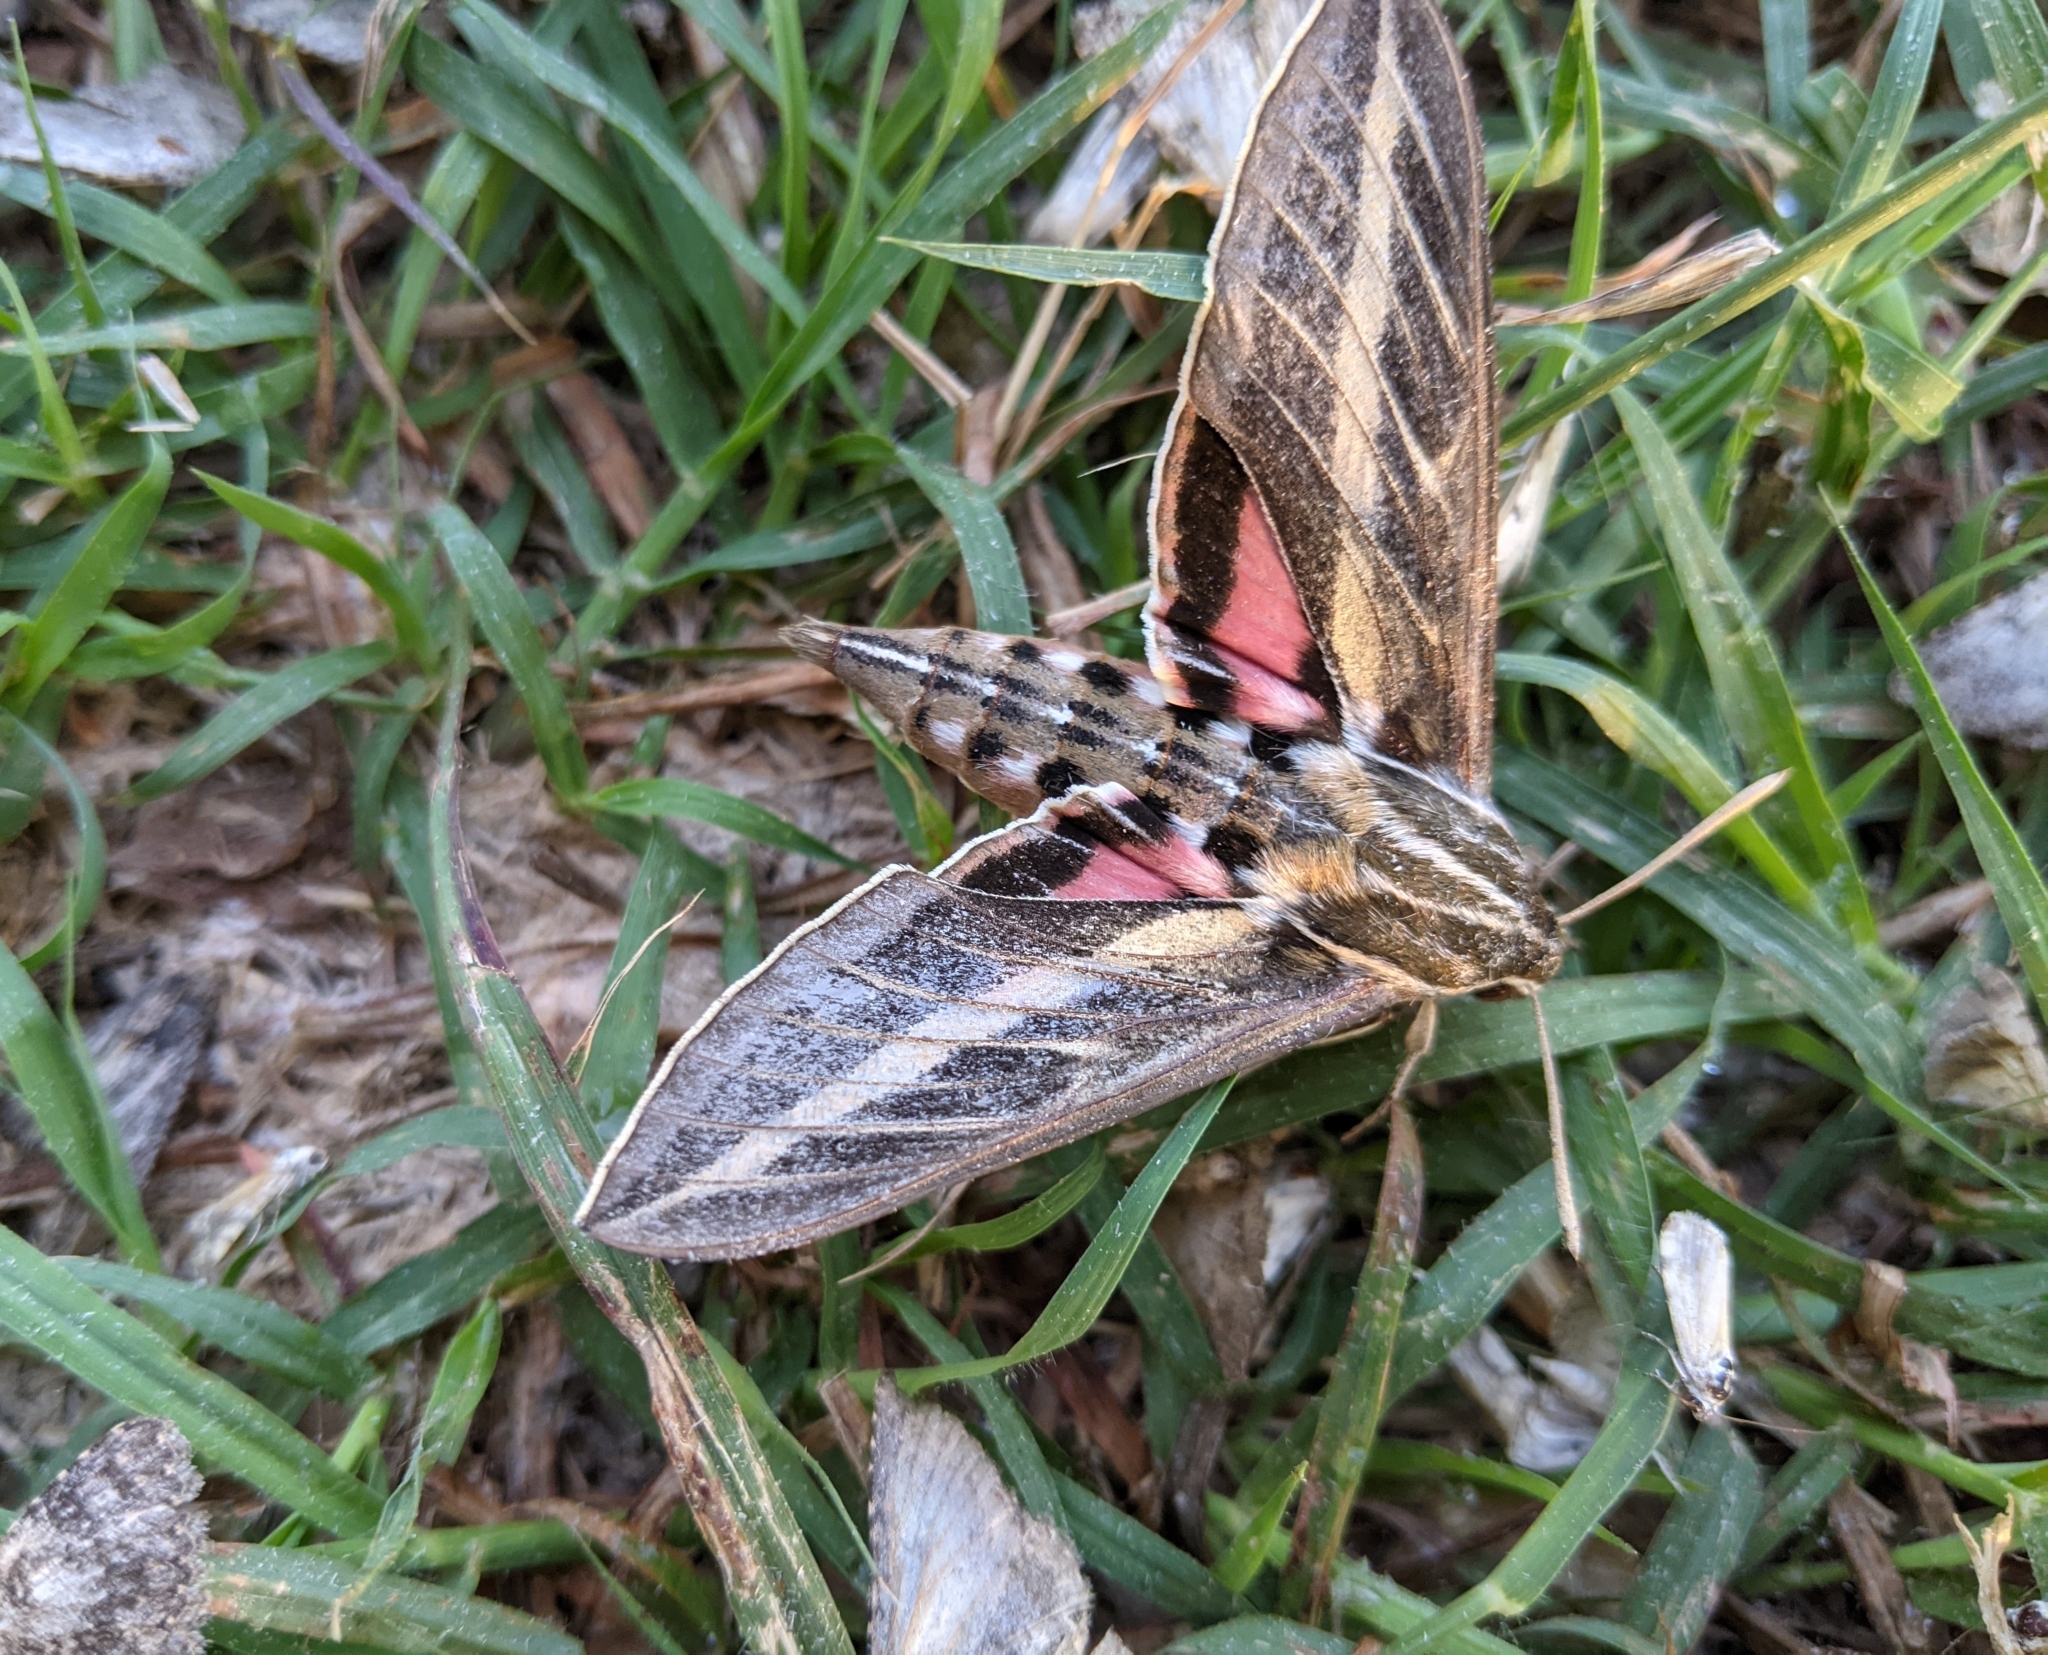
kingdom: Animalia
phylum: Arthropoda
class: Insecta
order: Lepidoptera
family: Sphingidae
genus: Hyles
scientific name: Hyles lineata
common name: White-lined sphinx
